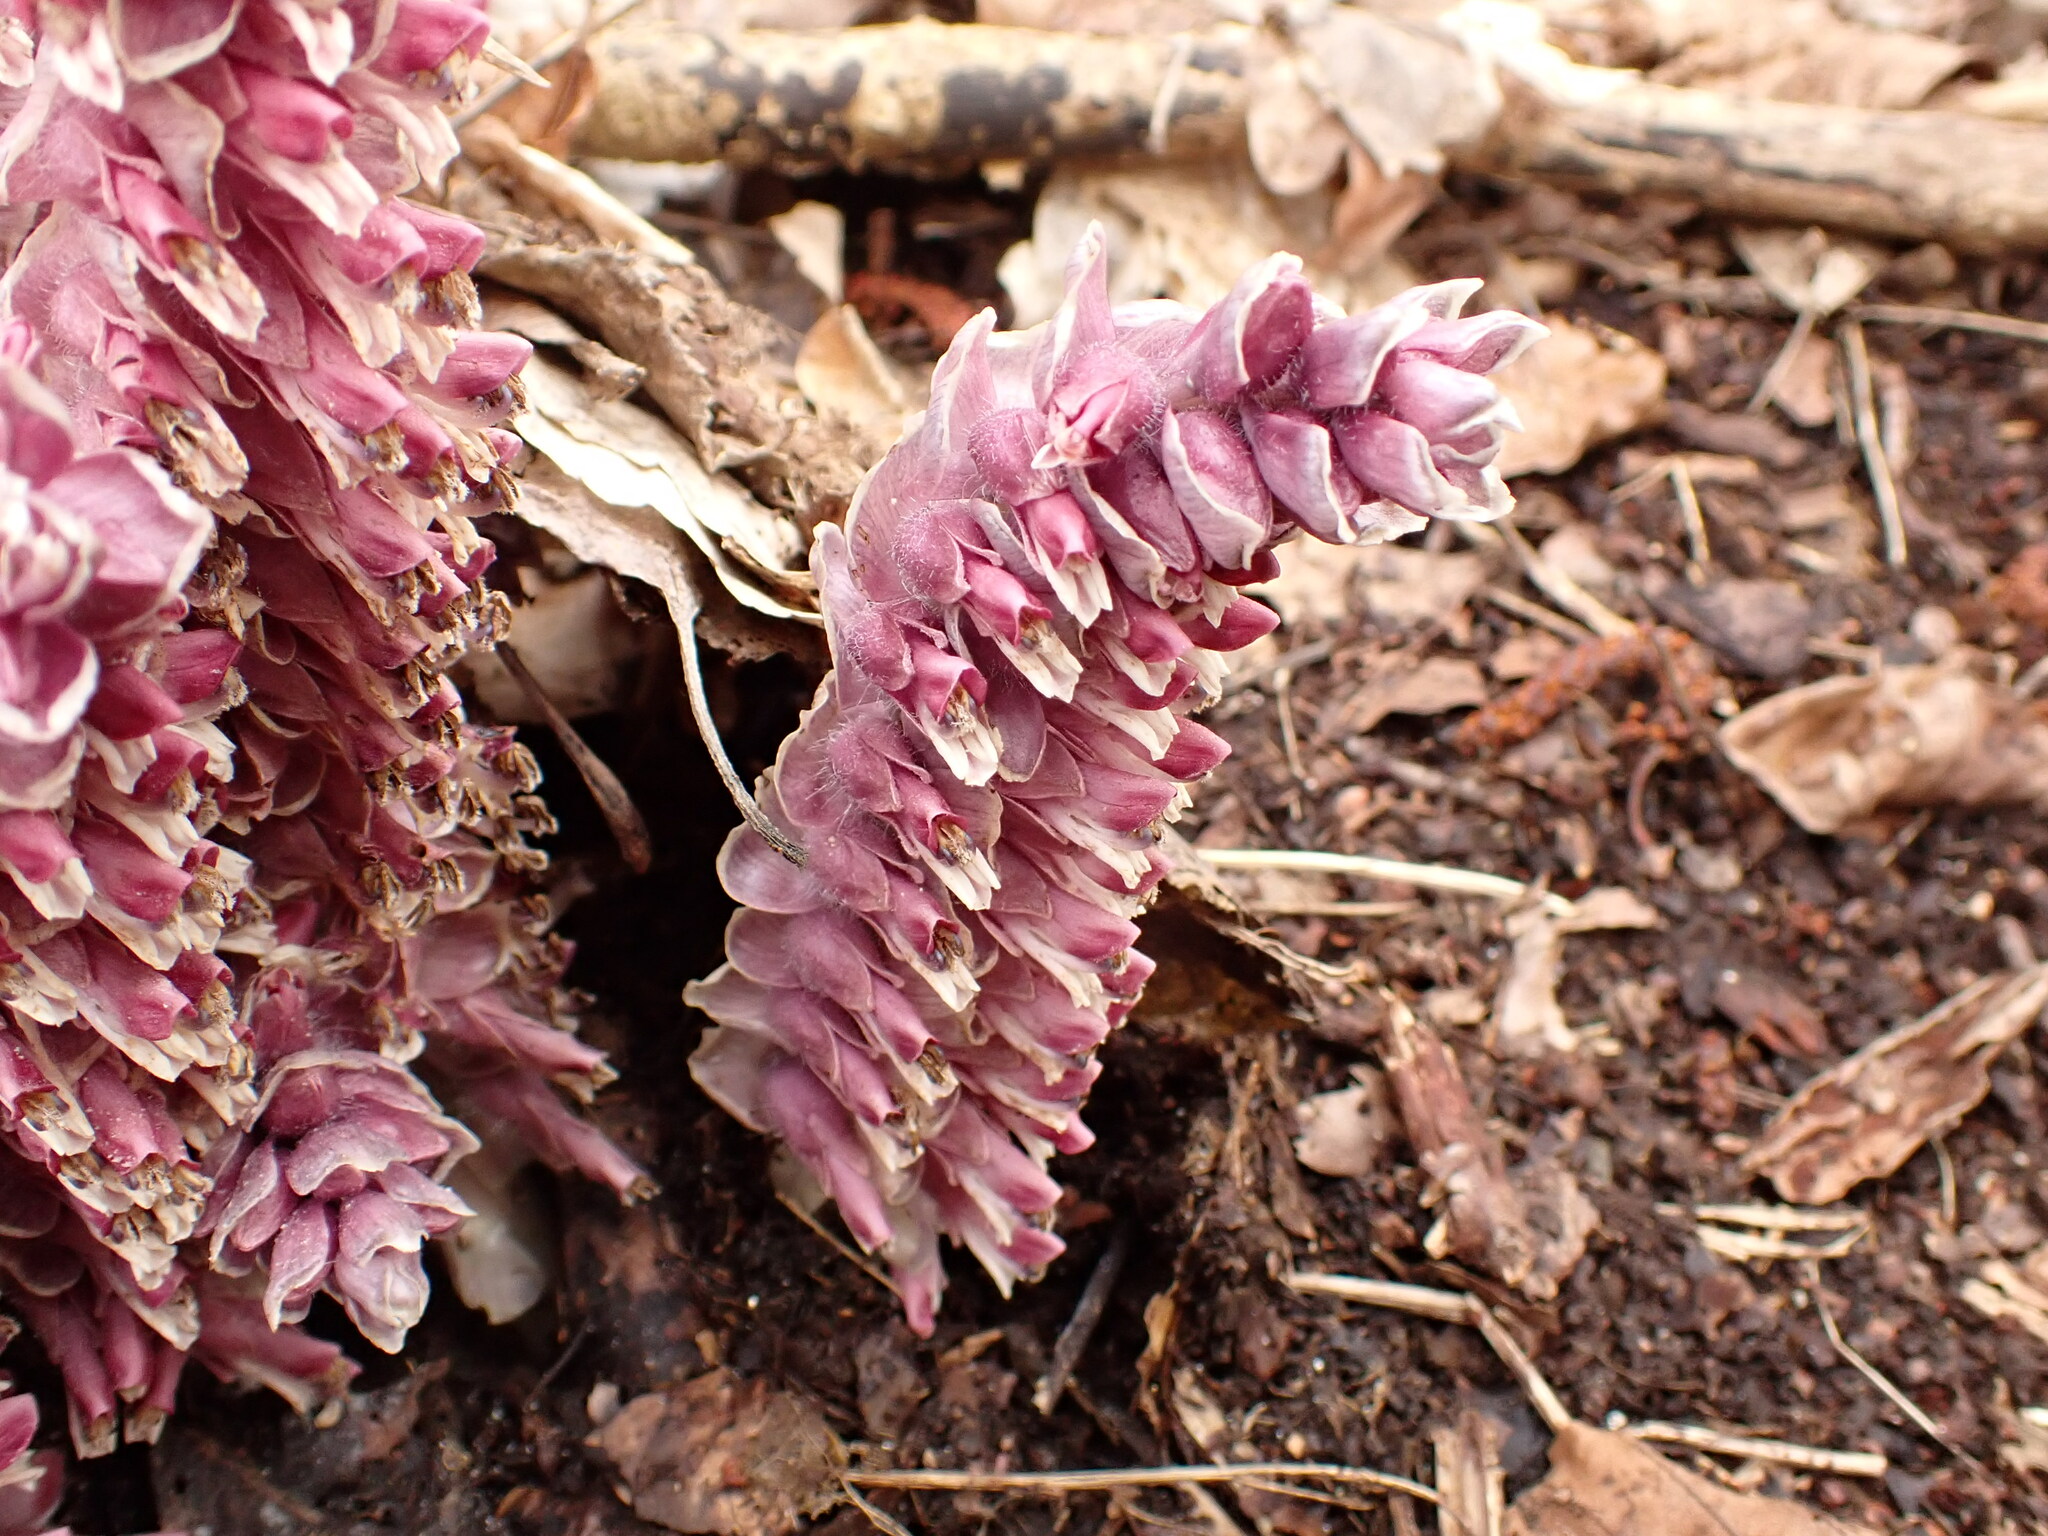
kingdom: Plantae
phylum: Tracheophyta
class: Magnoliopsida
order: Lamiales
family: Orobanchaceae
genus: Lathraea
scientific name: Lathraea squamaria
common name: Toothwort
